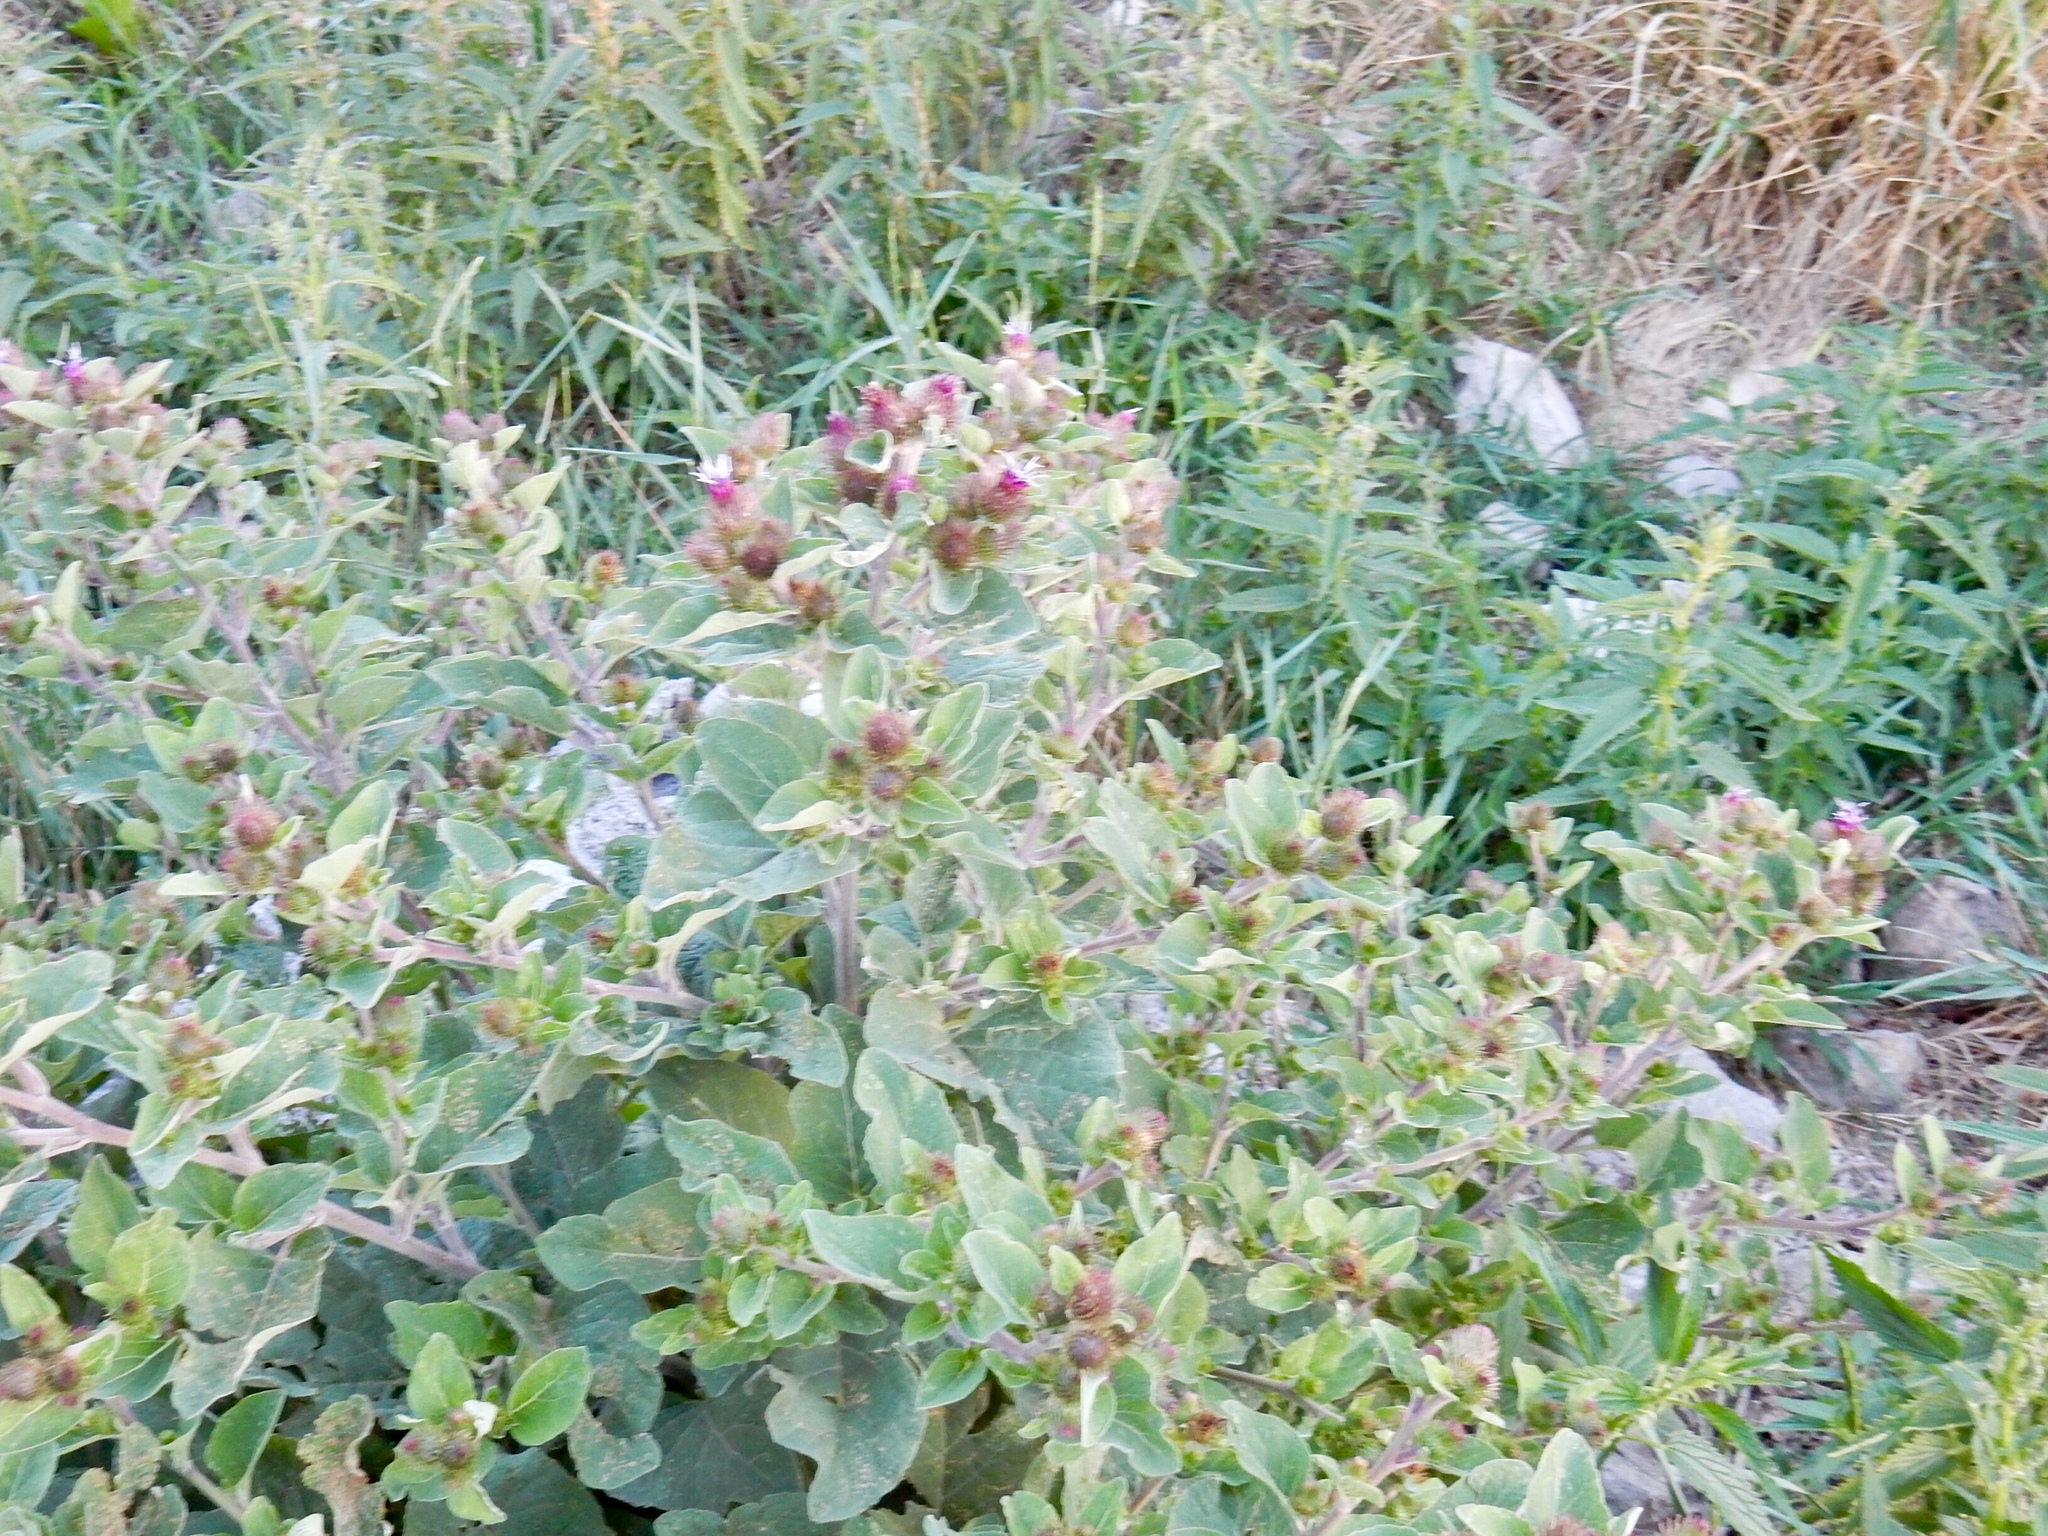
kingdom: Plantae
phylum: Tracheophyta
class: Magnoliopsida
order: Asterales
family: Asteraceae
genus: Arctium
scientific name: Arctium minus
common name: Lesser burdock
